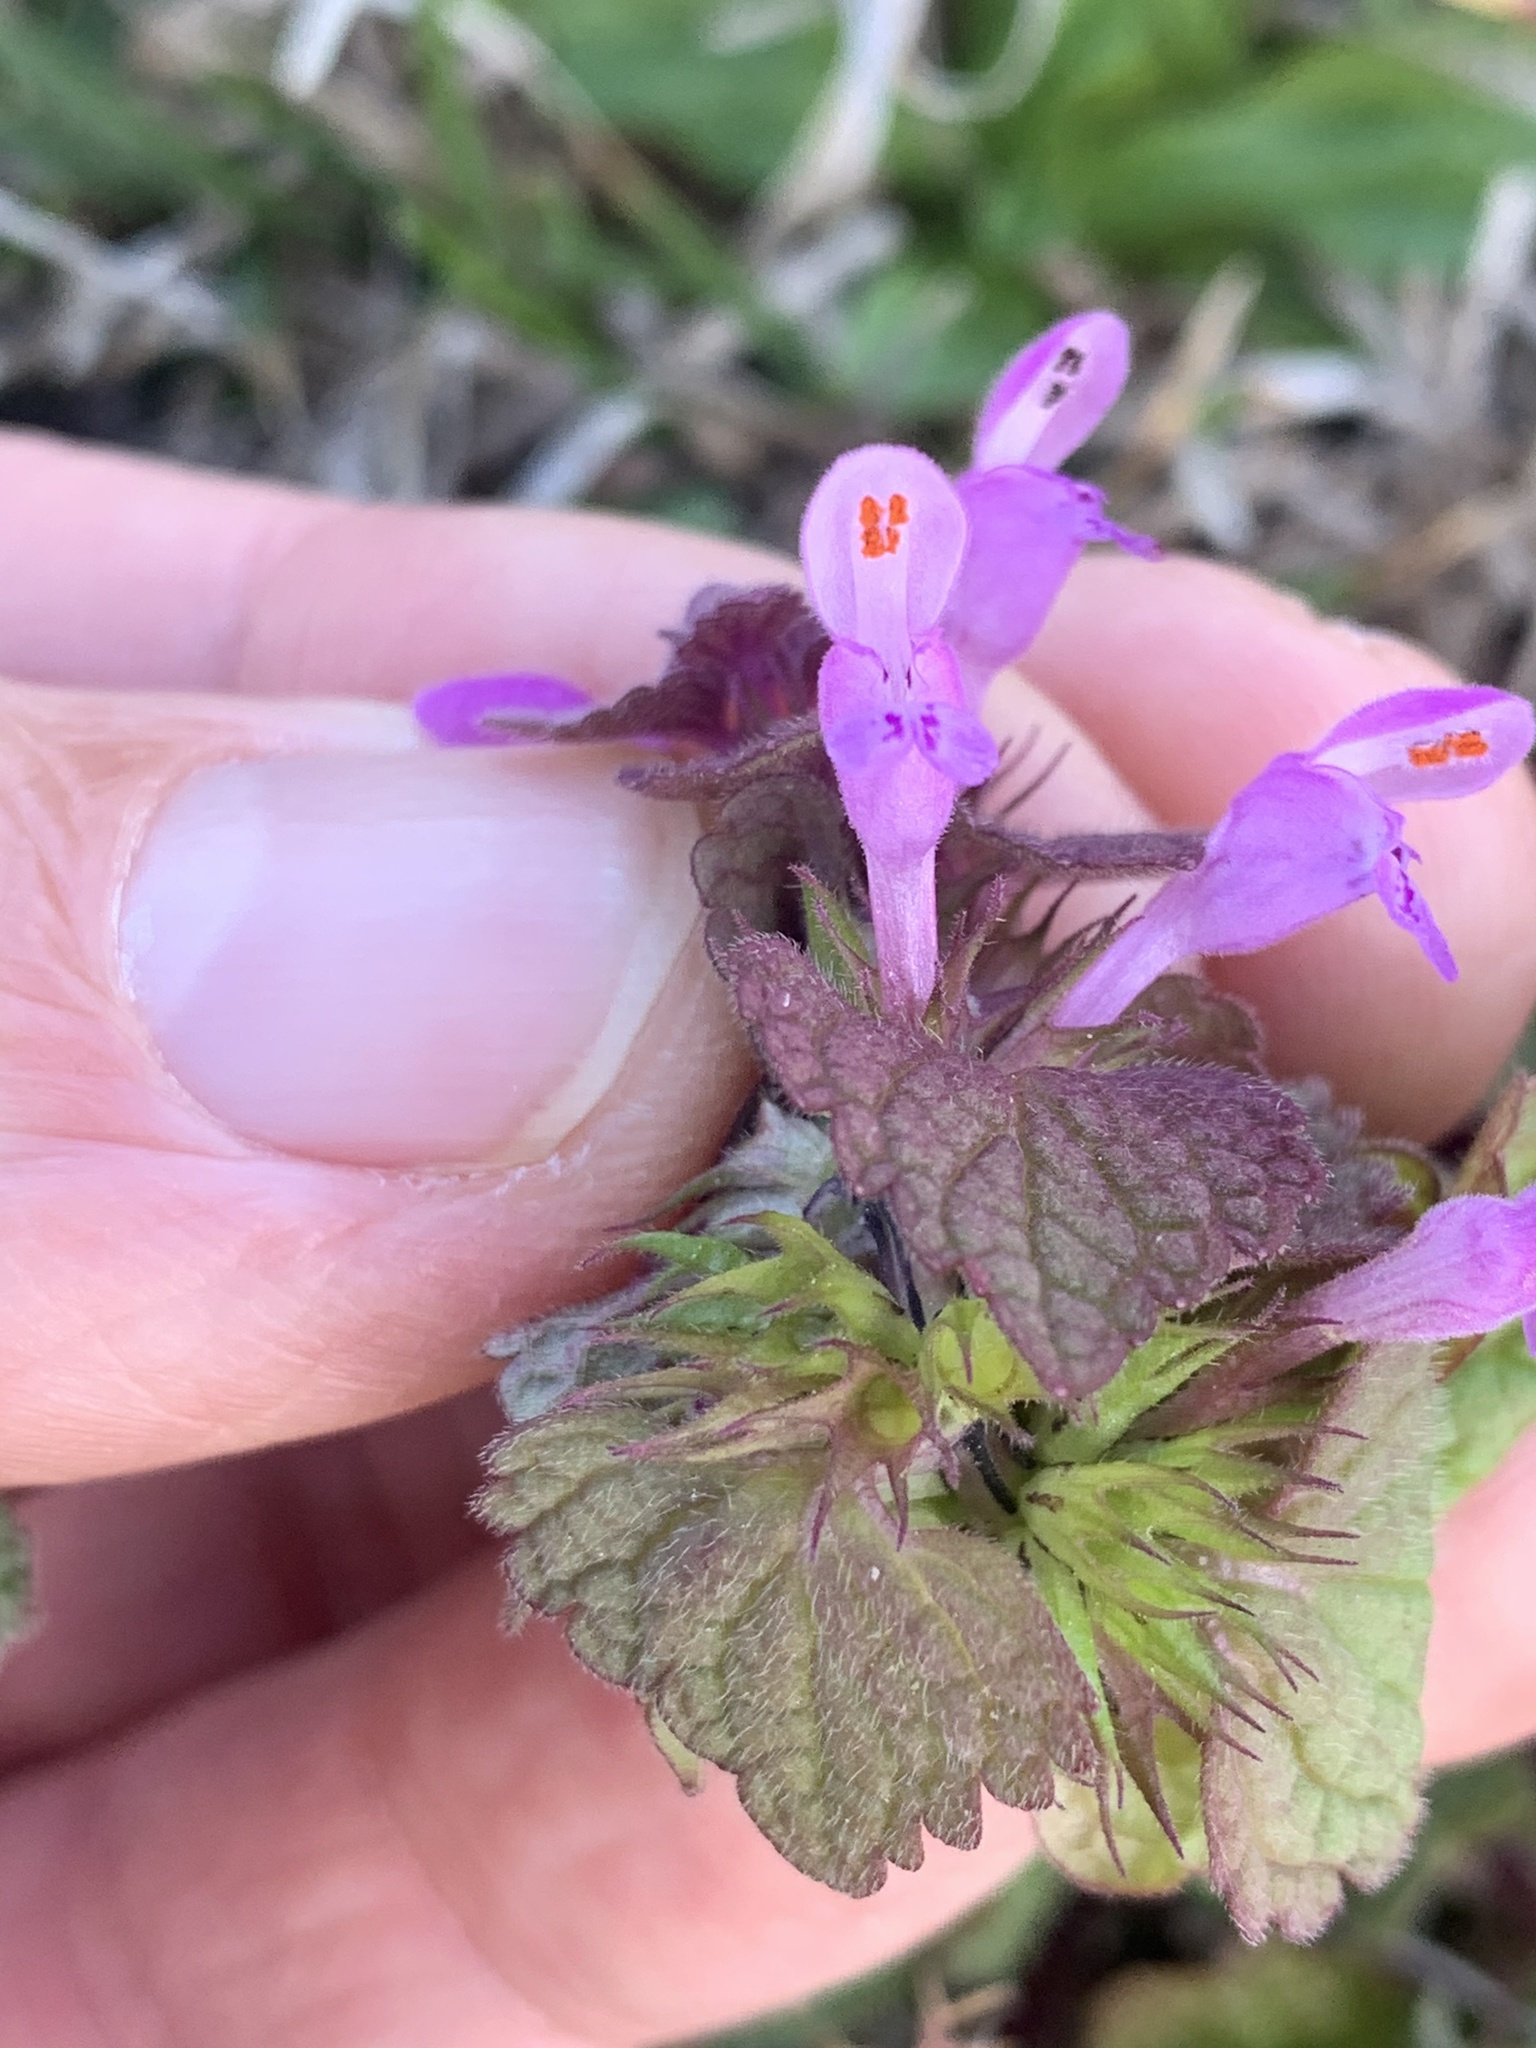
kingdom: Plantae
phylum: Tracheophyta
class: Magnoliopsida
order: Lamiales
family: Lamiaceae
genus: Lamium
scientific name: Lamium purpureum
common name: Red dead-nettle
